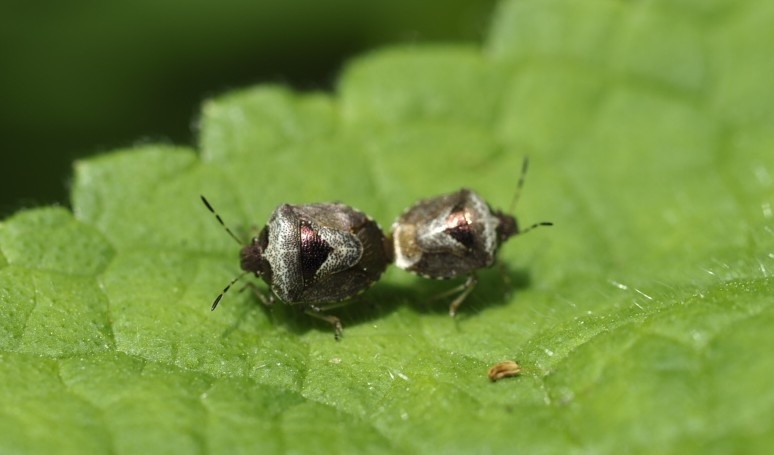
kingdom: Animalia
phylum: Arthropoda
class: Insecta
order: Hemiptera
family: Pentatomidae
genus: Eysarcoris
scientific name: Eysarcoris venustissimus
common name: Woundwort shieldbug
